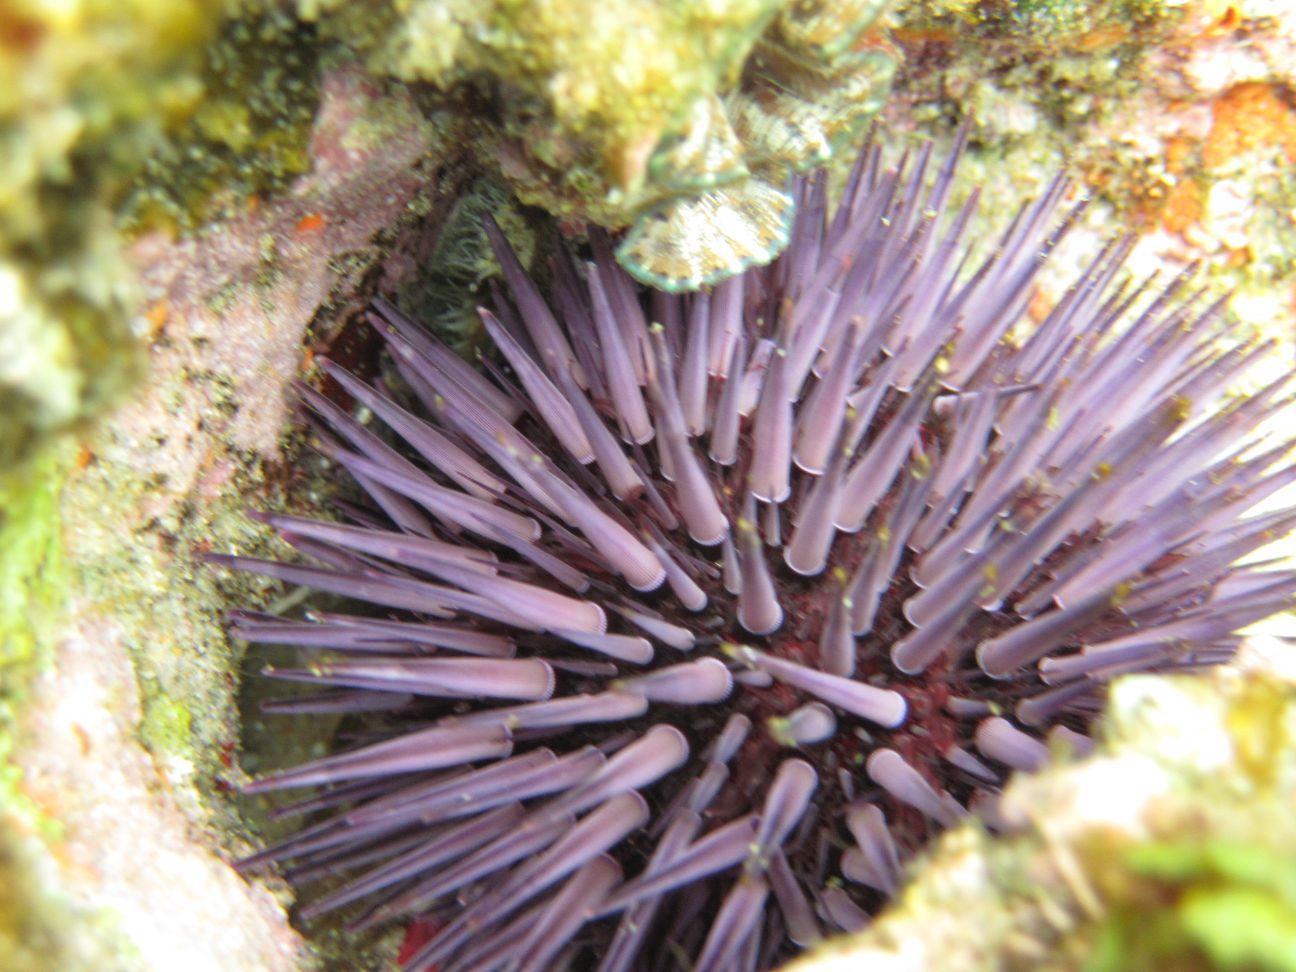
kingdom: Animalia
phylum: Echinodermata
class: Echinoidea
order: Camarodonta
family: Echinometridae
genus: Echinometra
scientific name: Echinometra mathaei
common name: Rock-boring urchin
